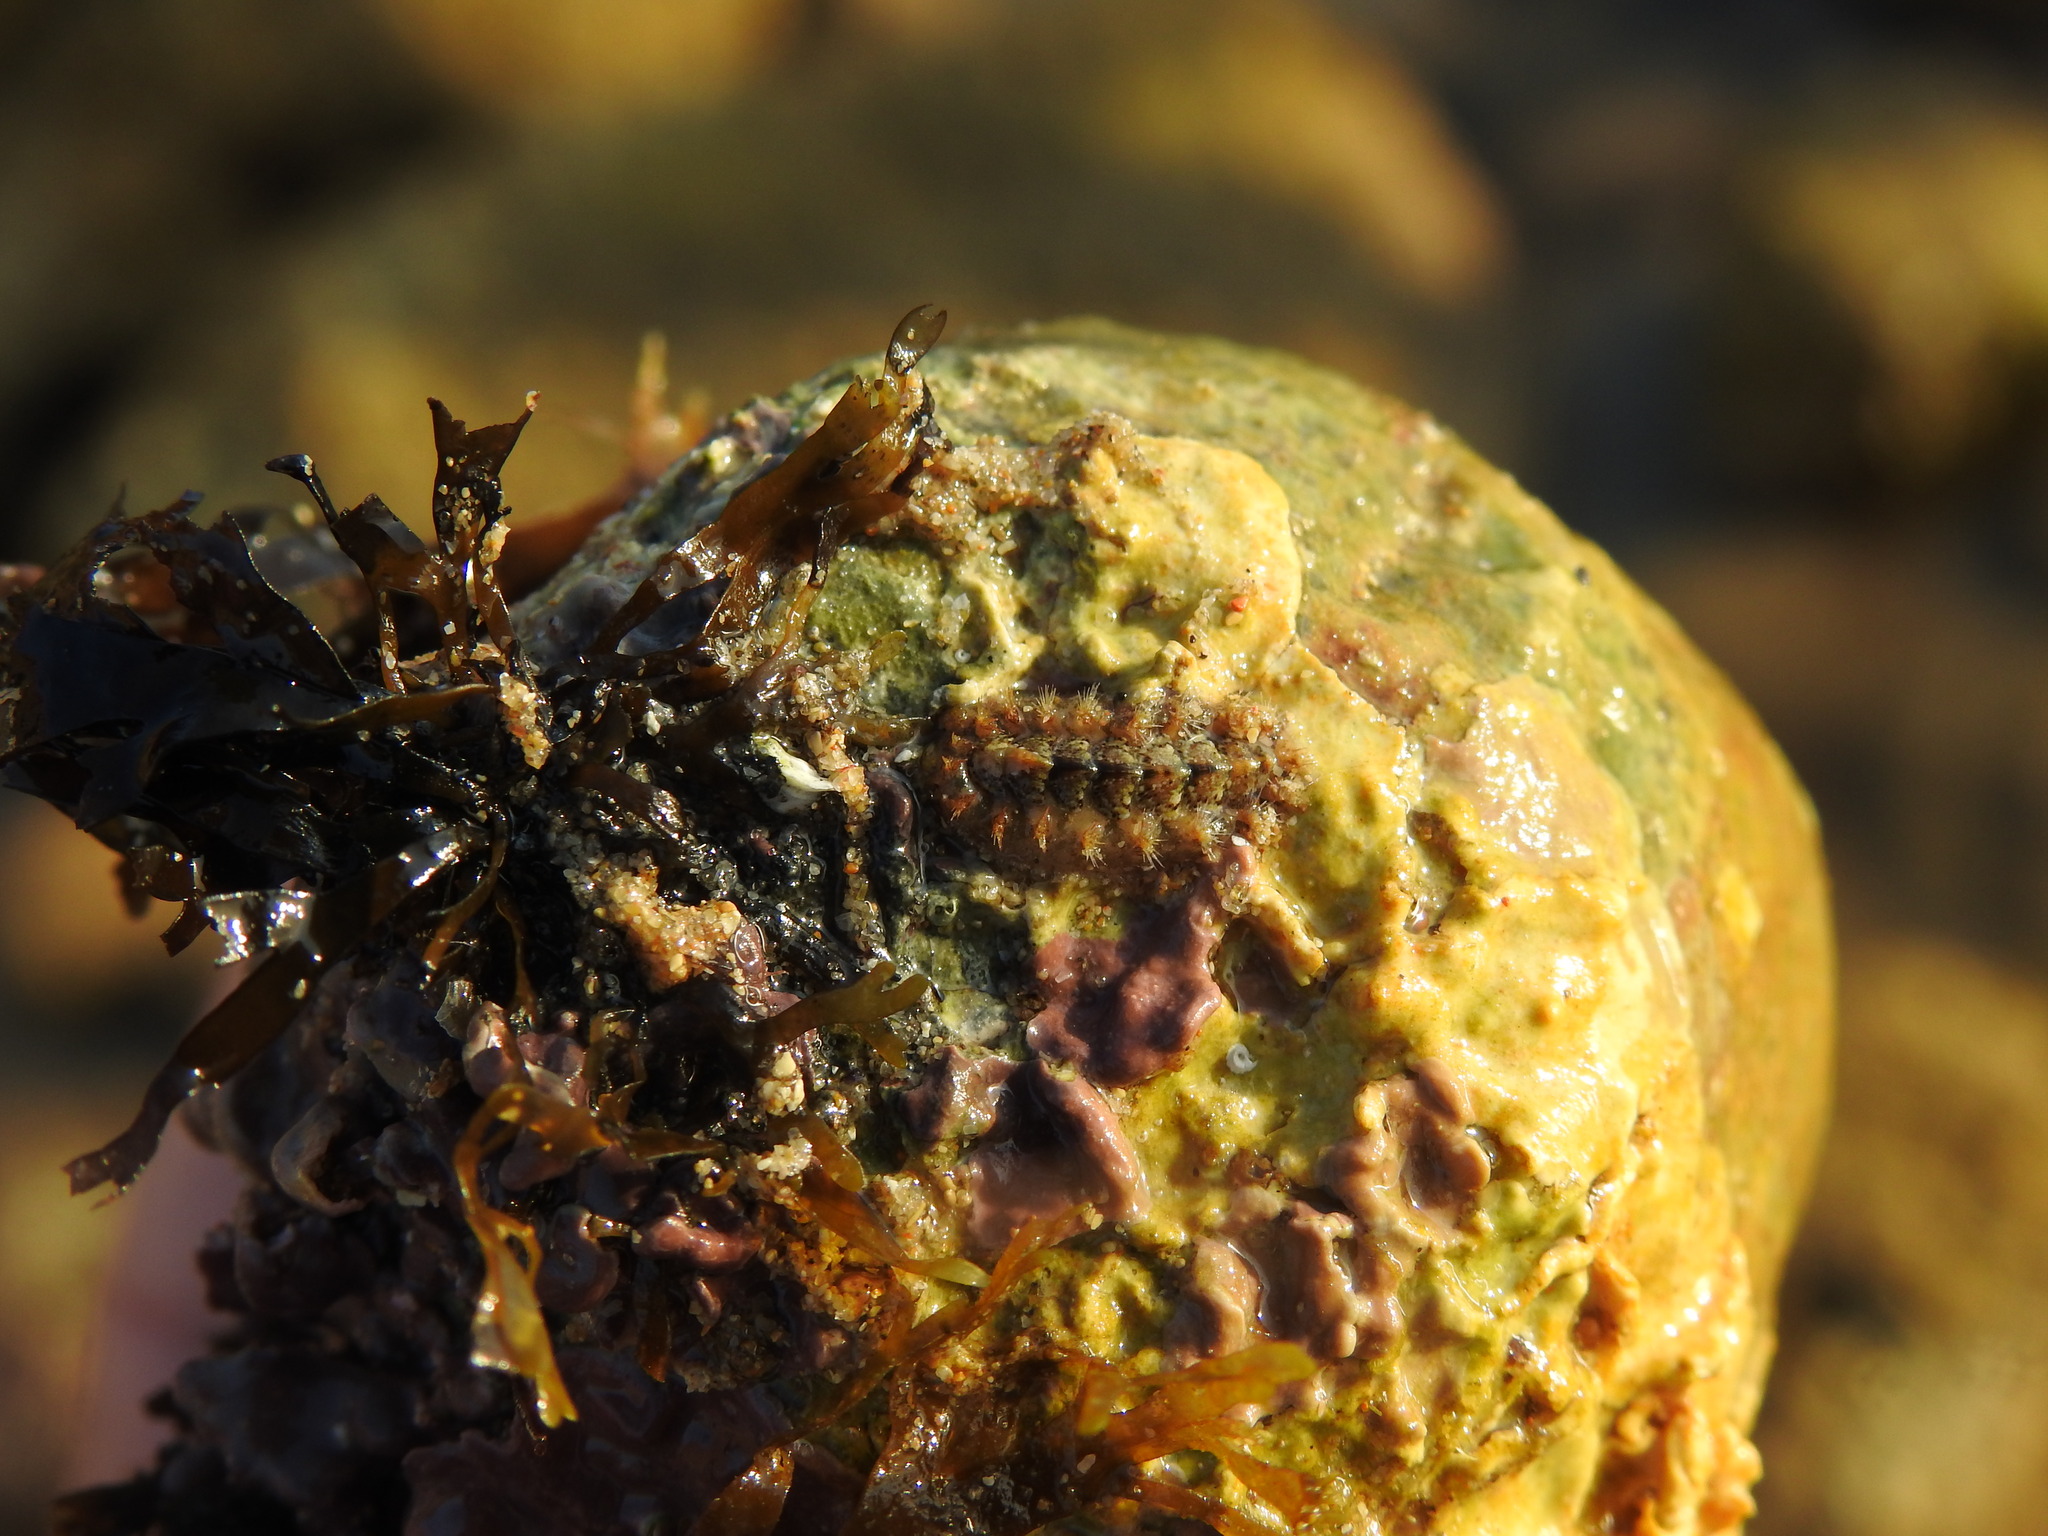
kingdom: Animalia
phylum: Mollusca
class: Polyplacophora
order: Chitonida
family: Acanthochitonidae
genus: Acanthochitona
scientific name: Acanthochitona crinita
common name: Bristly mail chiton
